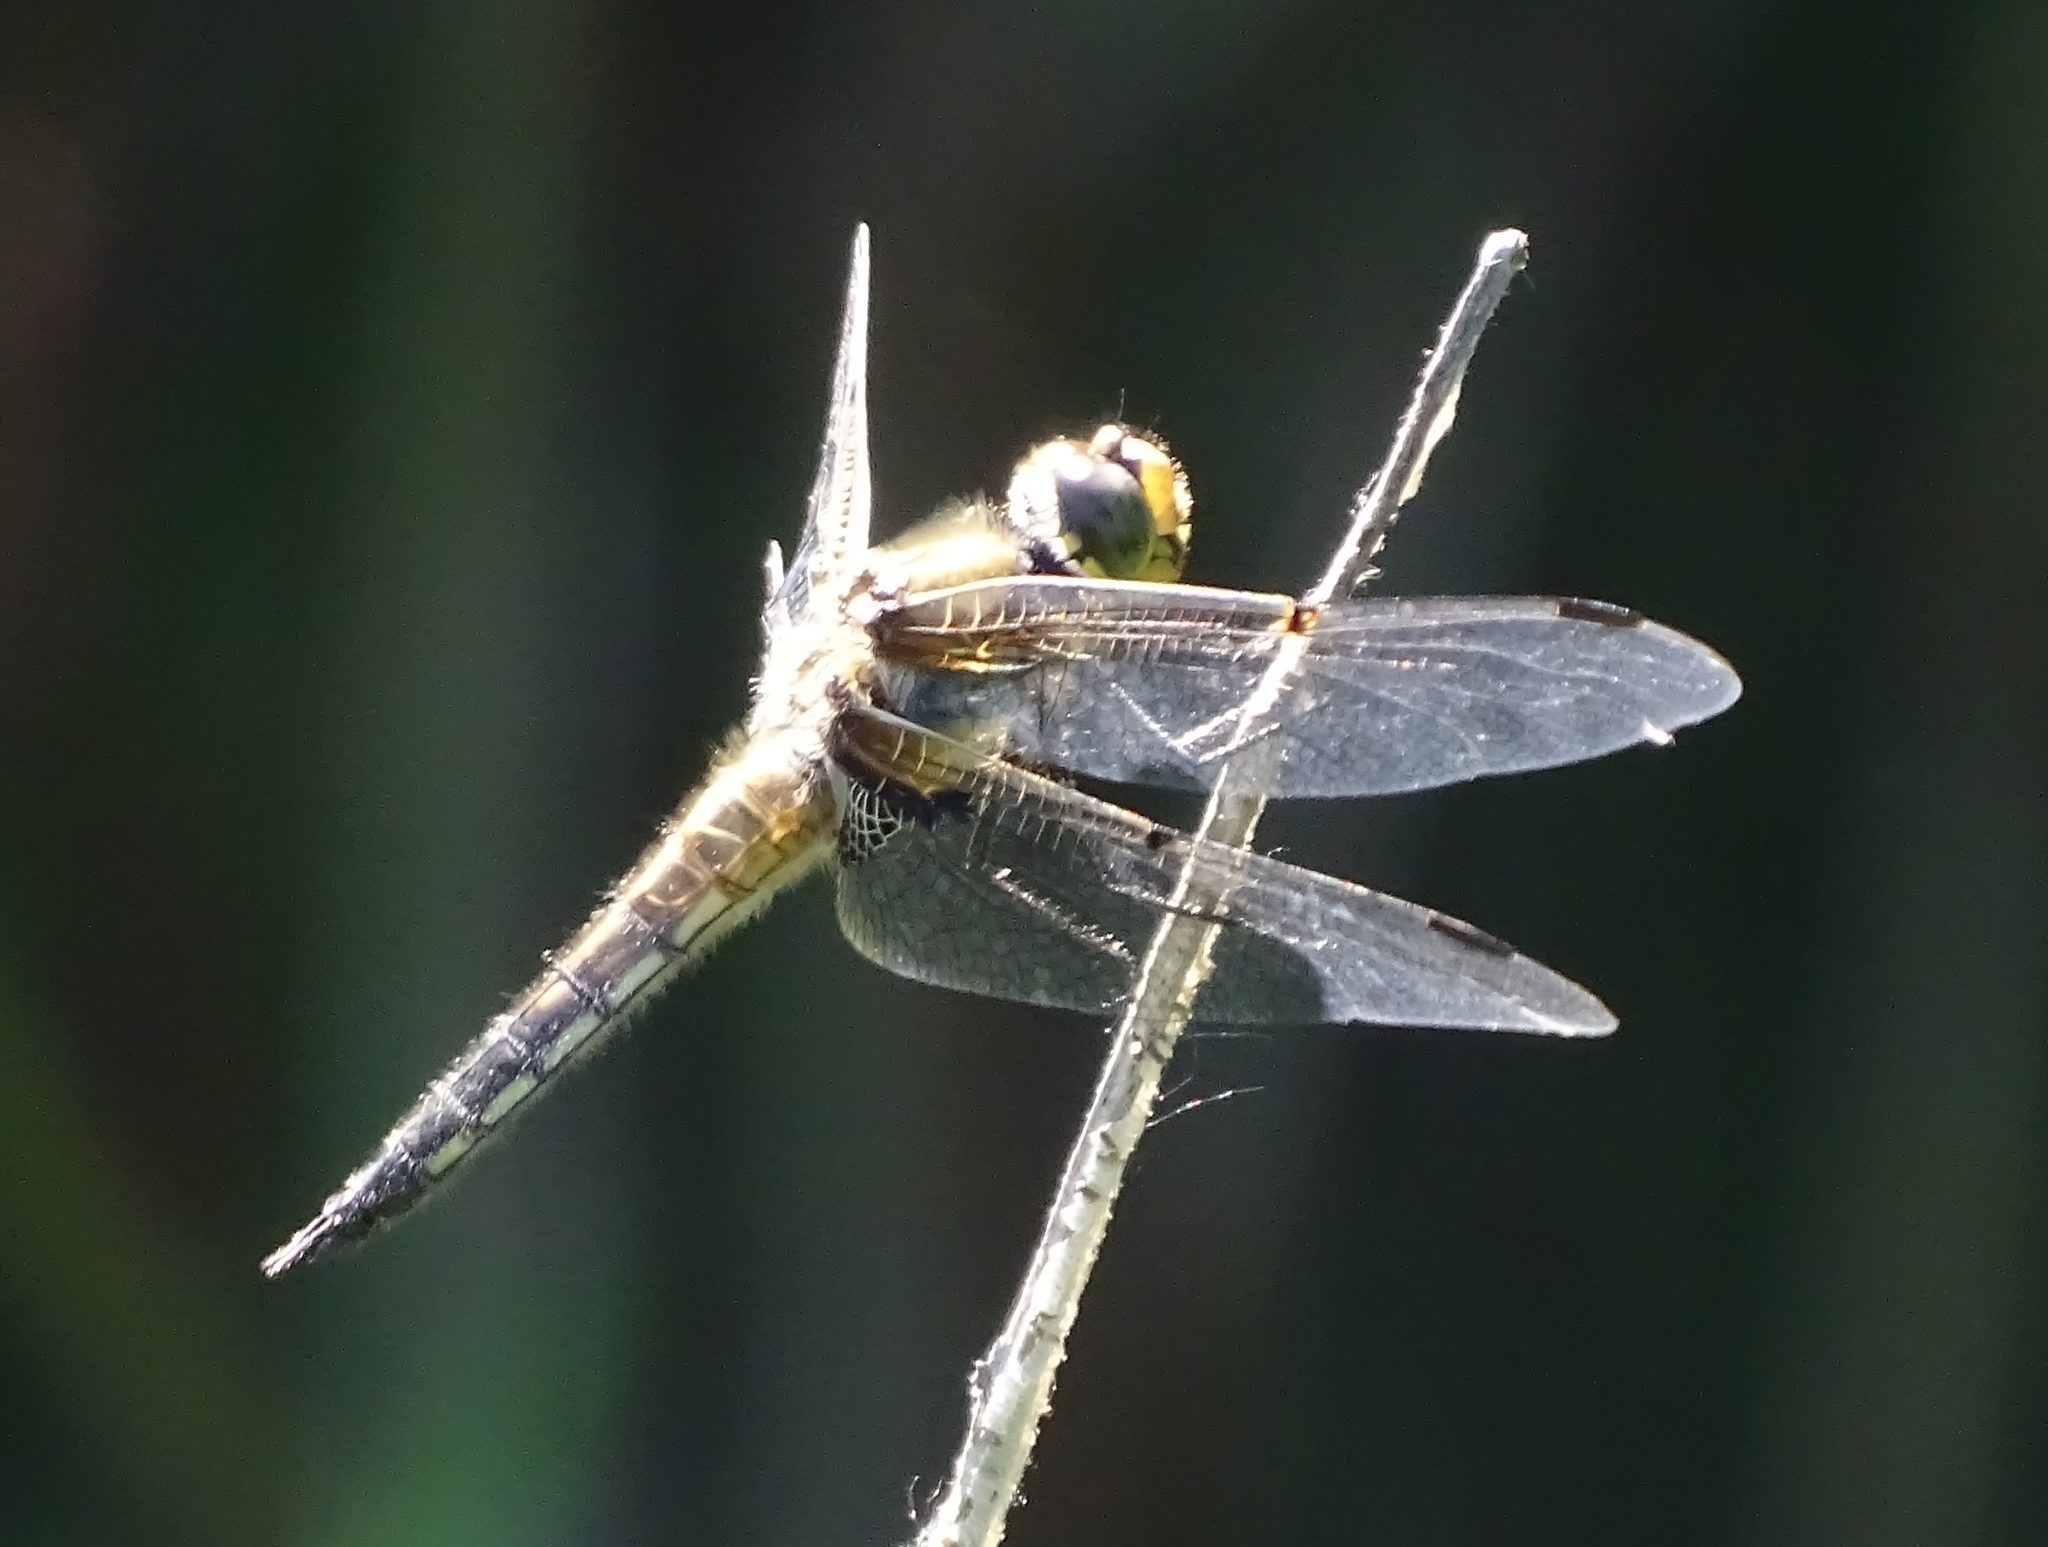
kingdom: Animalia
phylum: Arthropoda
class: Insecta
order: Odonata
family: Libellulidae
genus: Libellula
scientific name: Libellula quadrimaculata
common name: Four-spotted chaser
